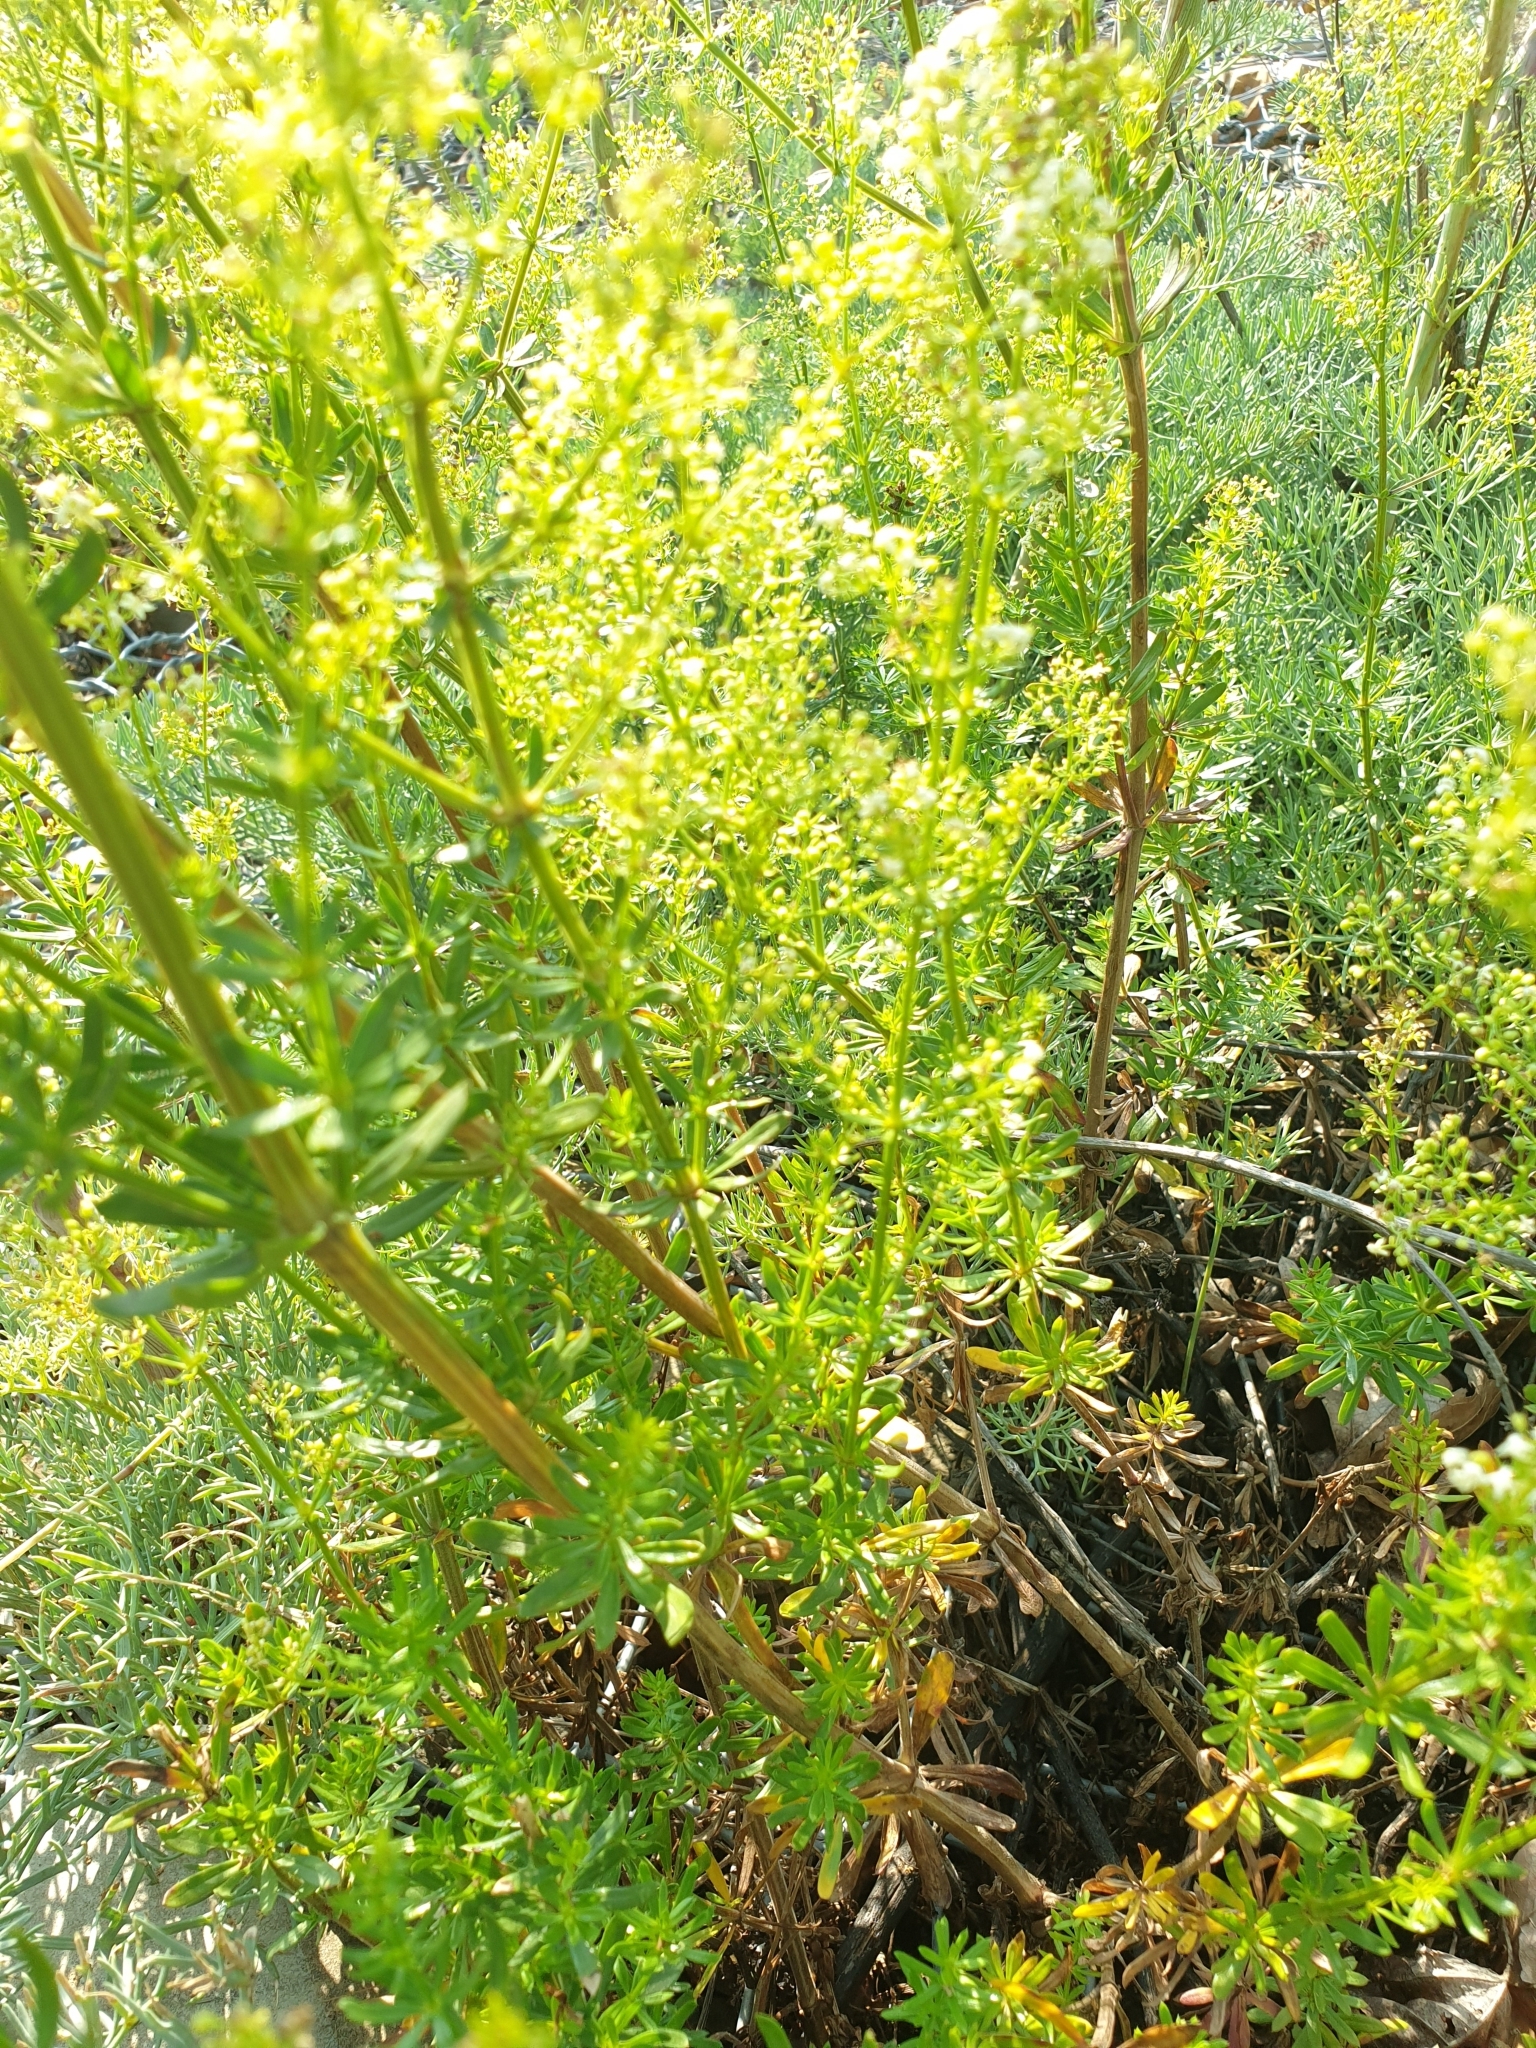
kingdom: Plantae
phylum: Tracheophyta
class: Magnoliopsida
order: Gentianales
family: Rubiaceae
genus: Galium
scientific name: Galium mollugo
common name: Hedge bedstraw
